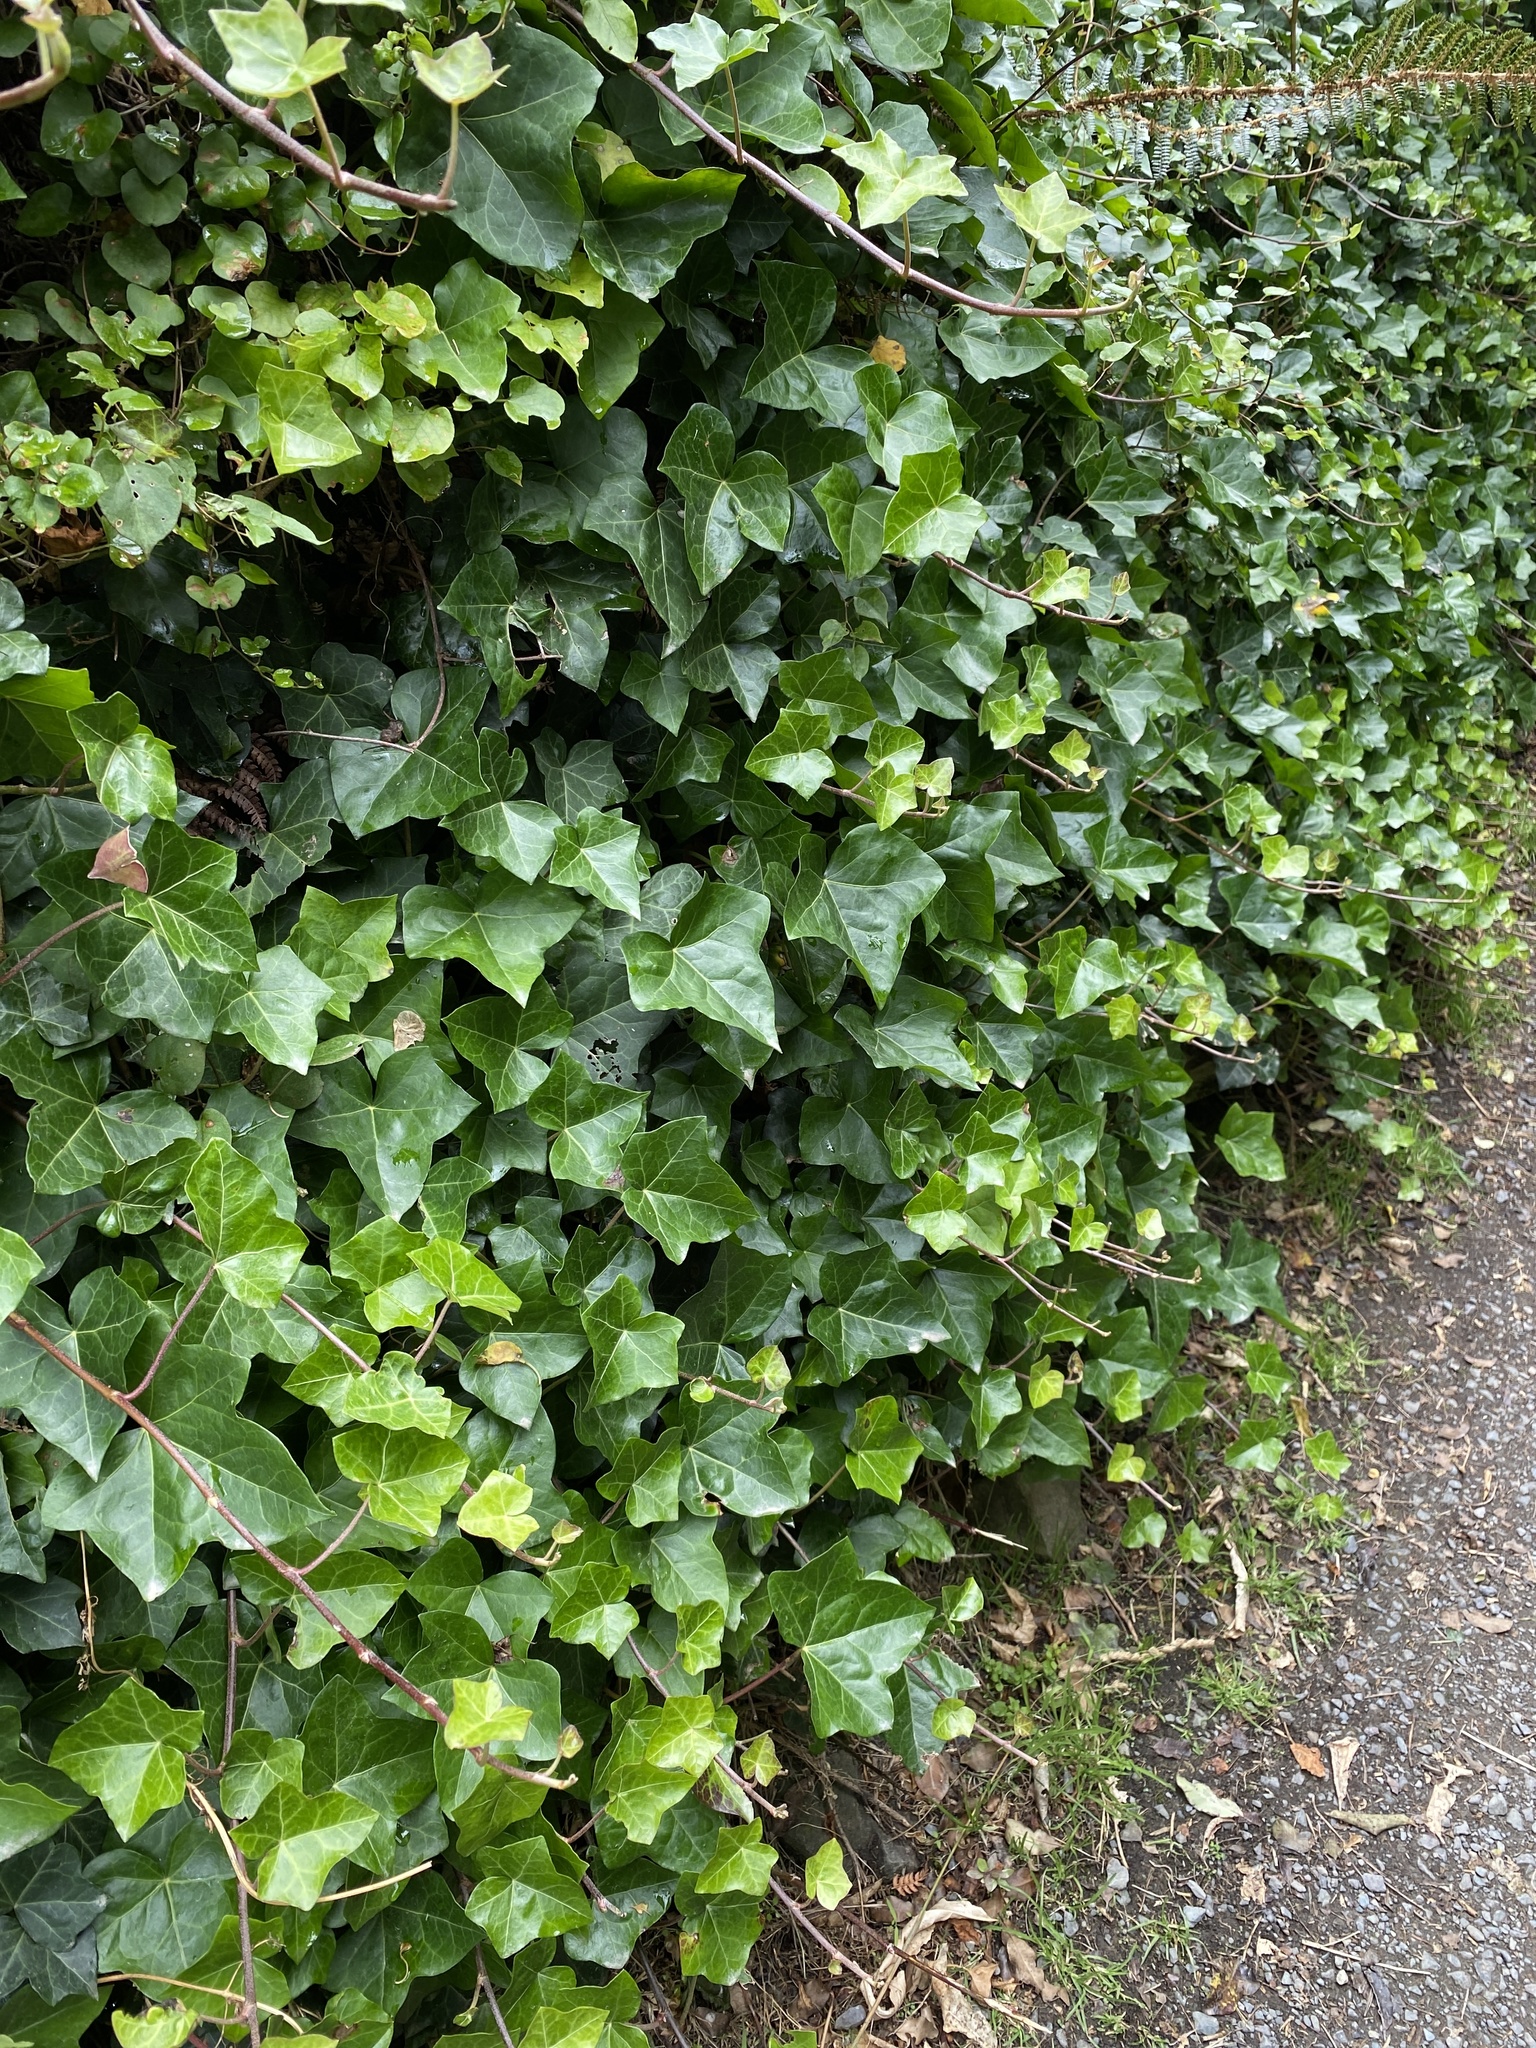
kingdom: Plantae
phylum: Tracheophyta
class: Magnoliopsida
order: Apiales
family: Araliaceae
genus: Hedera
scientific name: Hedera helix
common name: Ivy
